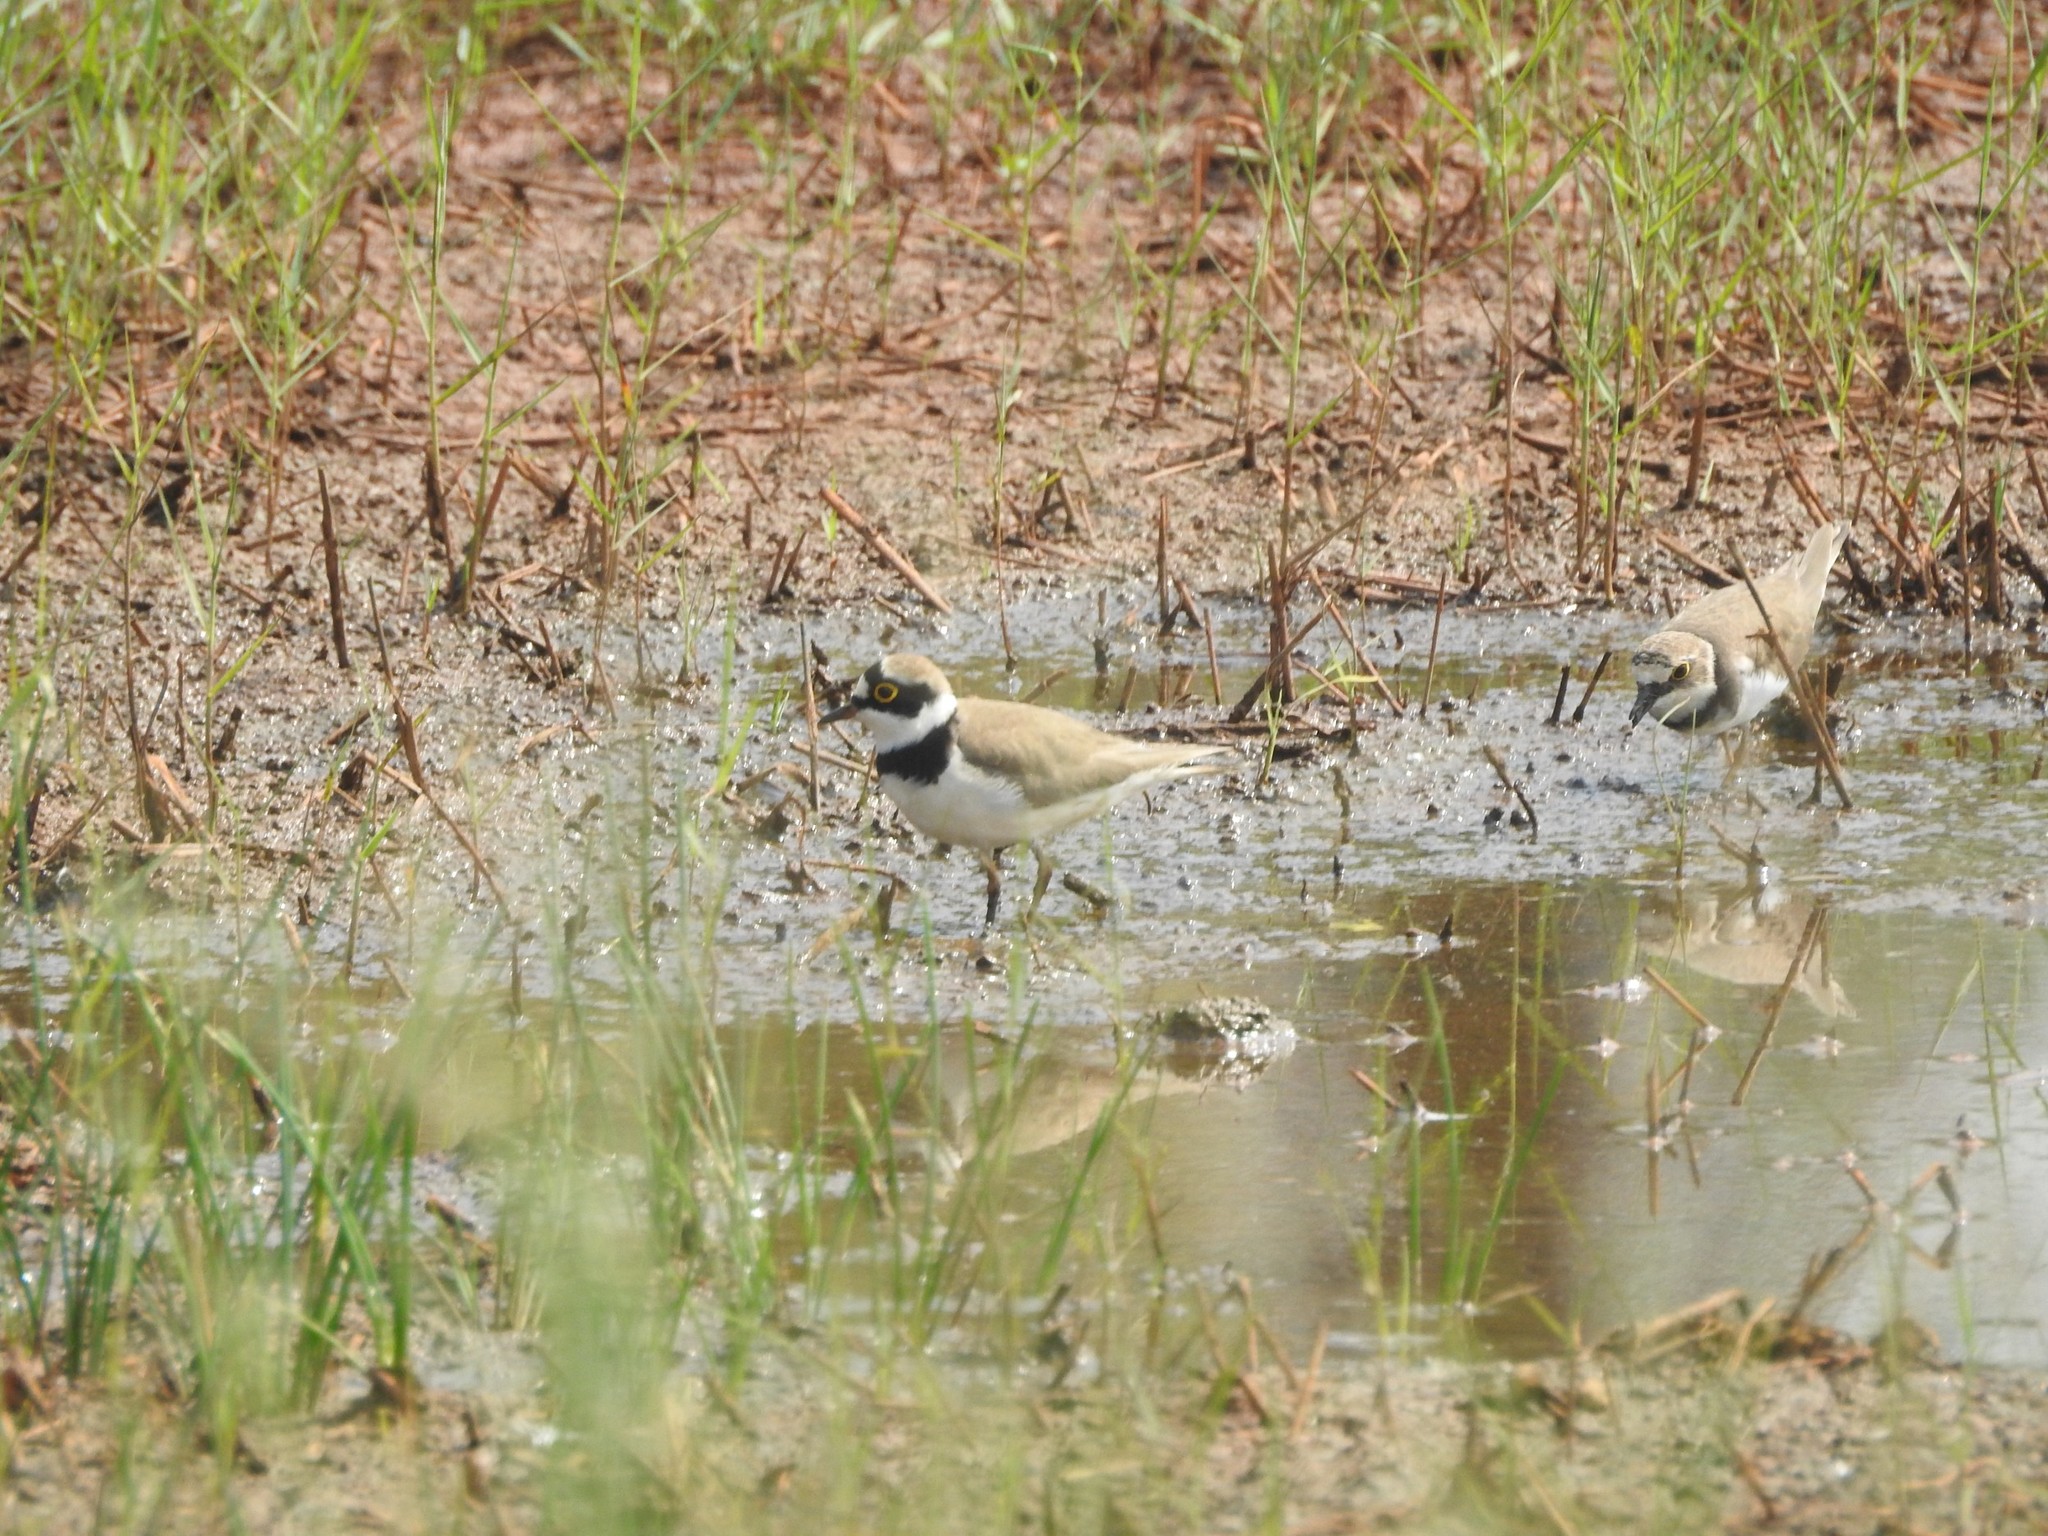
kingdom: Animalia
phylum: Chordata
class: Aves
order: Charadriiformes
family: Charadriidae
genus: Charadrius
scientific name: Charadrius dubius
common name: Little ringed plover
